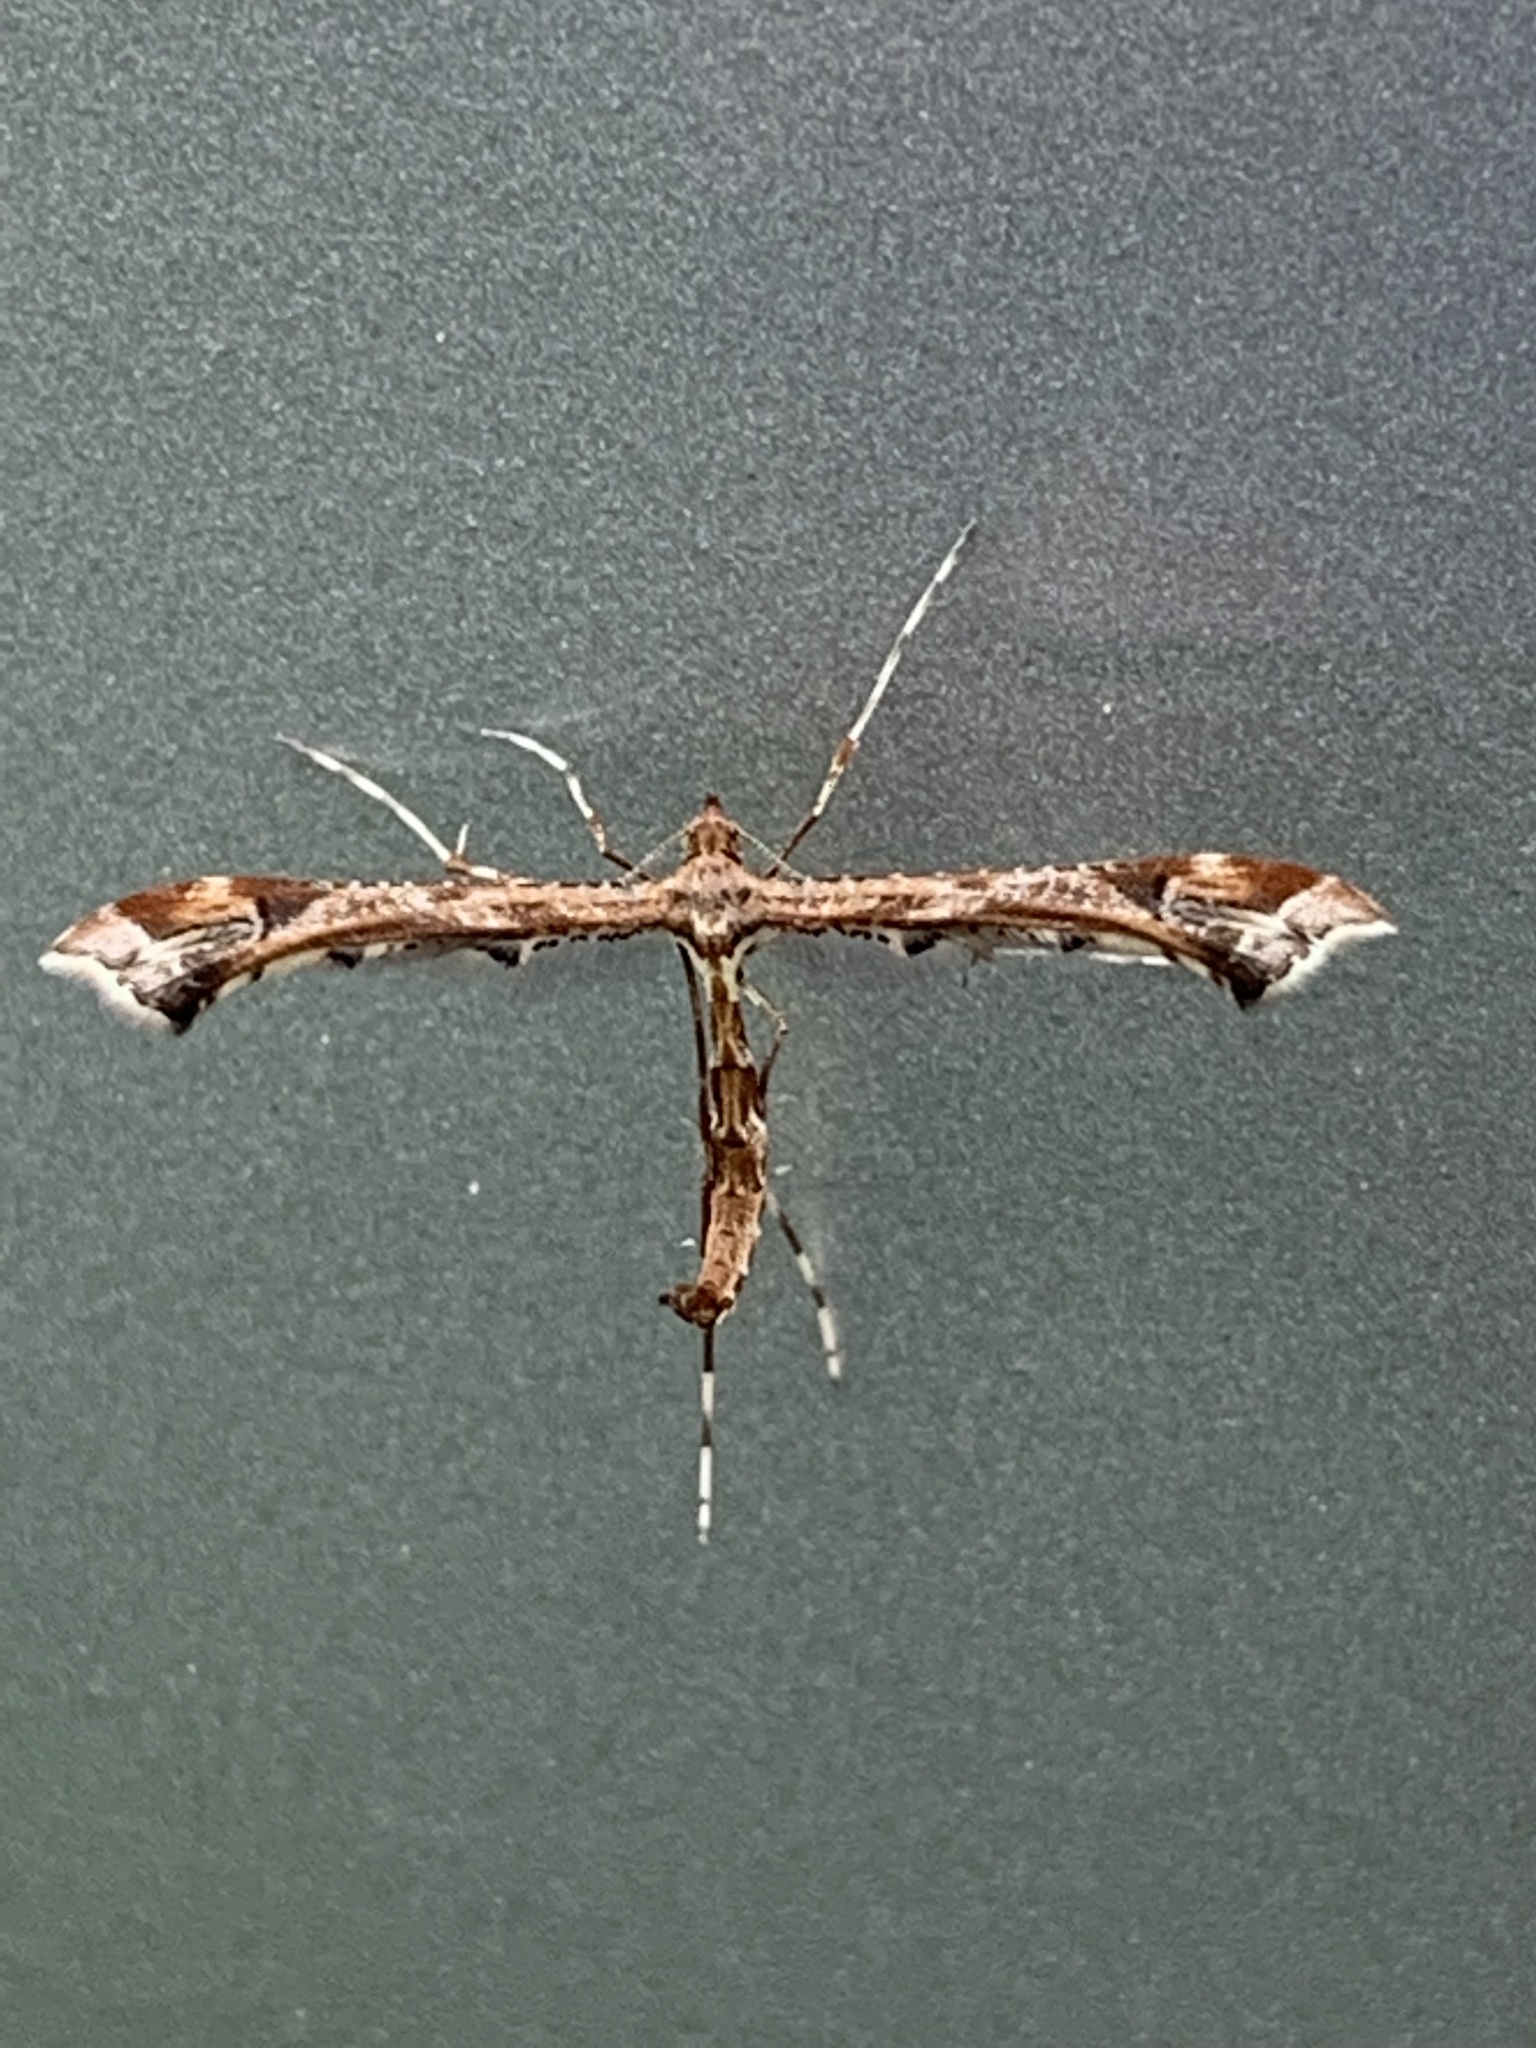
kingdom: Animalia
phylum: Arthropoda
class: Insecta
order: Lepidoptera
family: Pterophoridae
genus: Amblyptilia
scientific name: Amblyptilia acanthadactyla
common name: Beautiful plume
